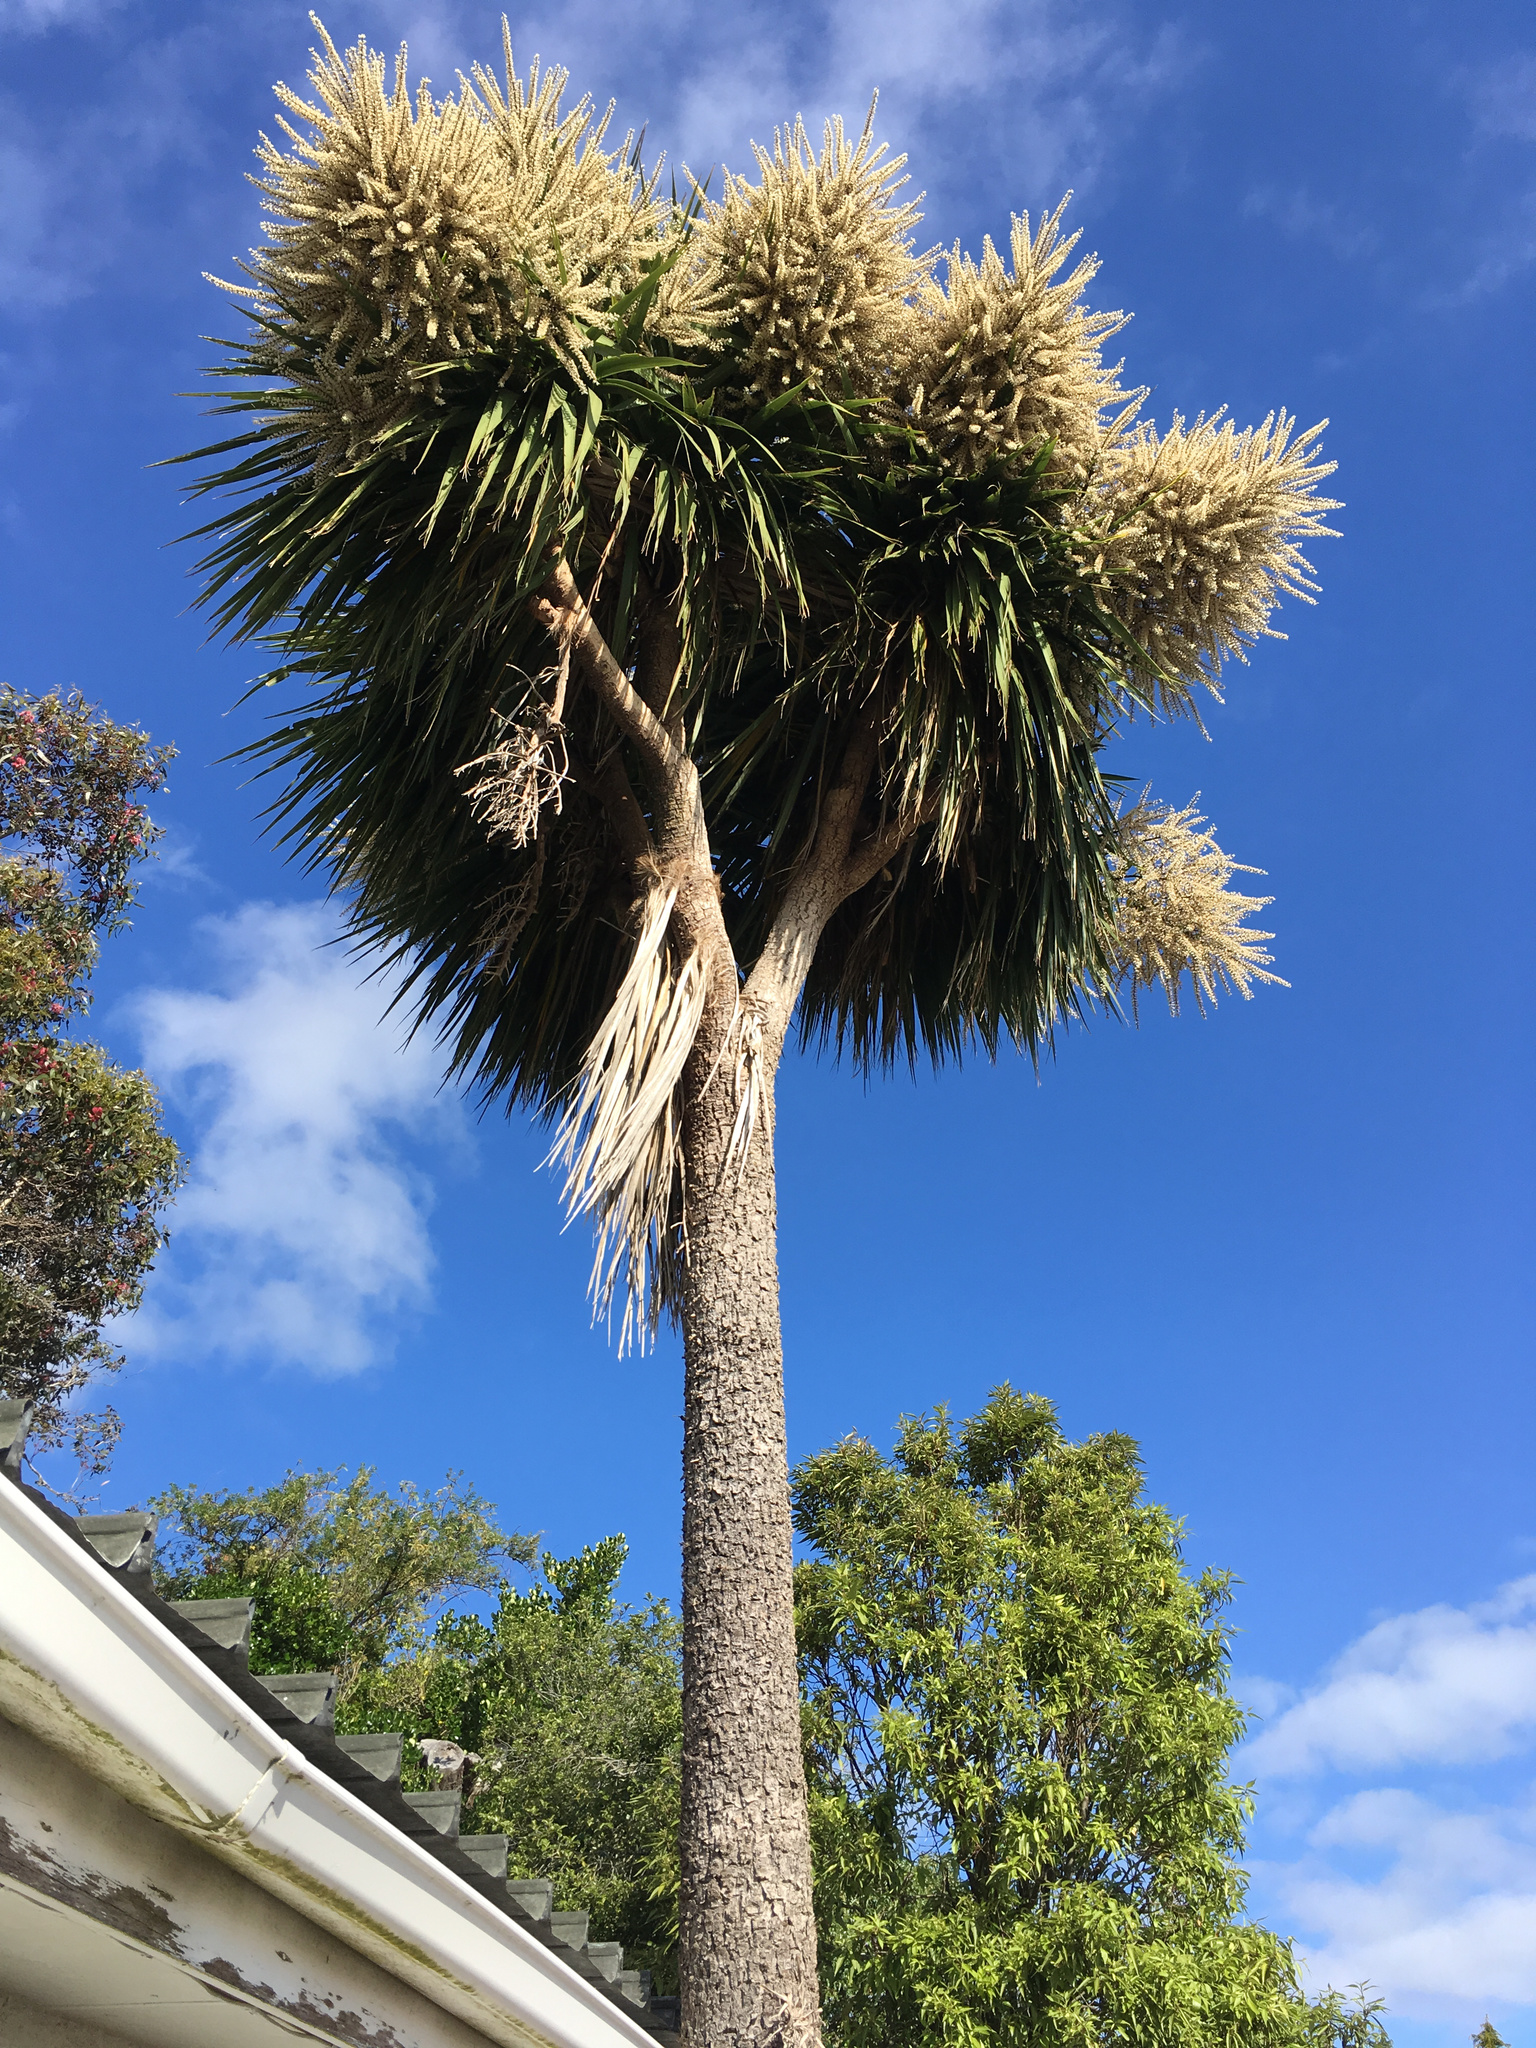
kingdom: Plantae
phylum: Tracheophyta
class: Liliopsida
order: Asparagales
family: Asparagaceae
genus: Cordyline
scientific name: Cordyline australis
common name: Cabbage-palm
